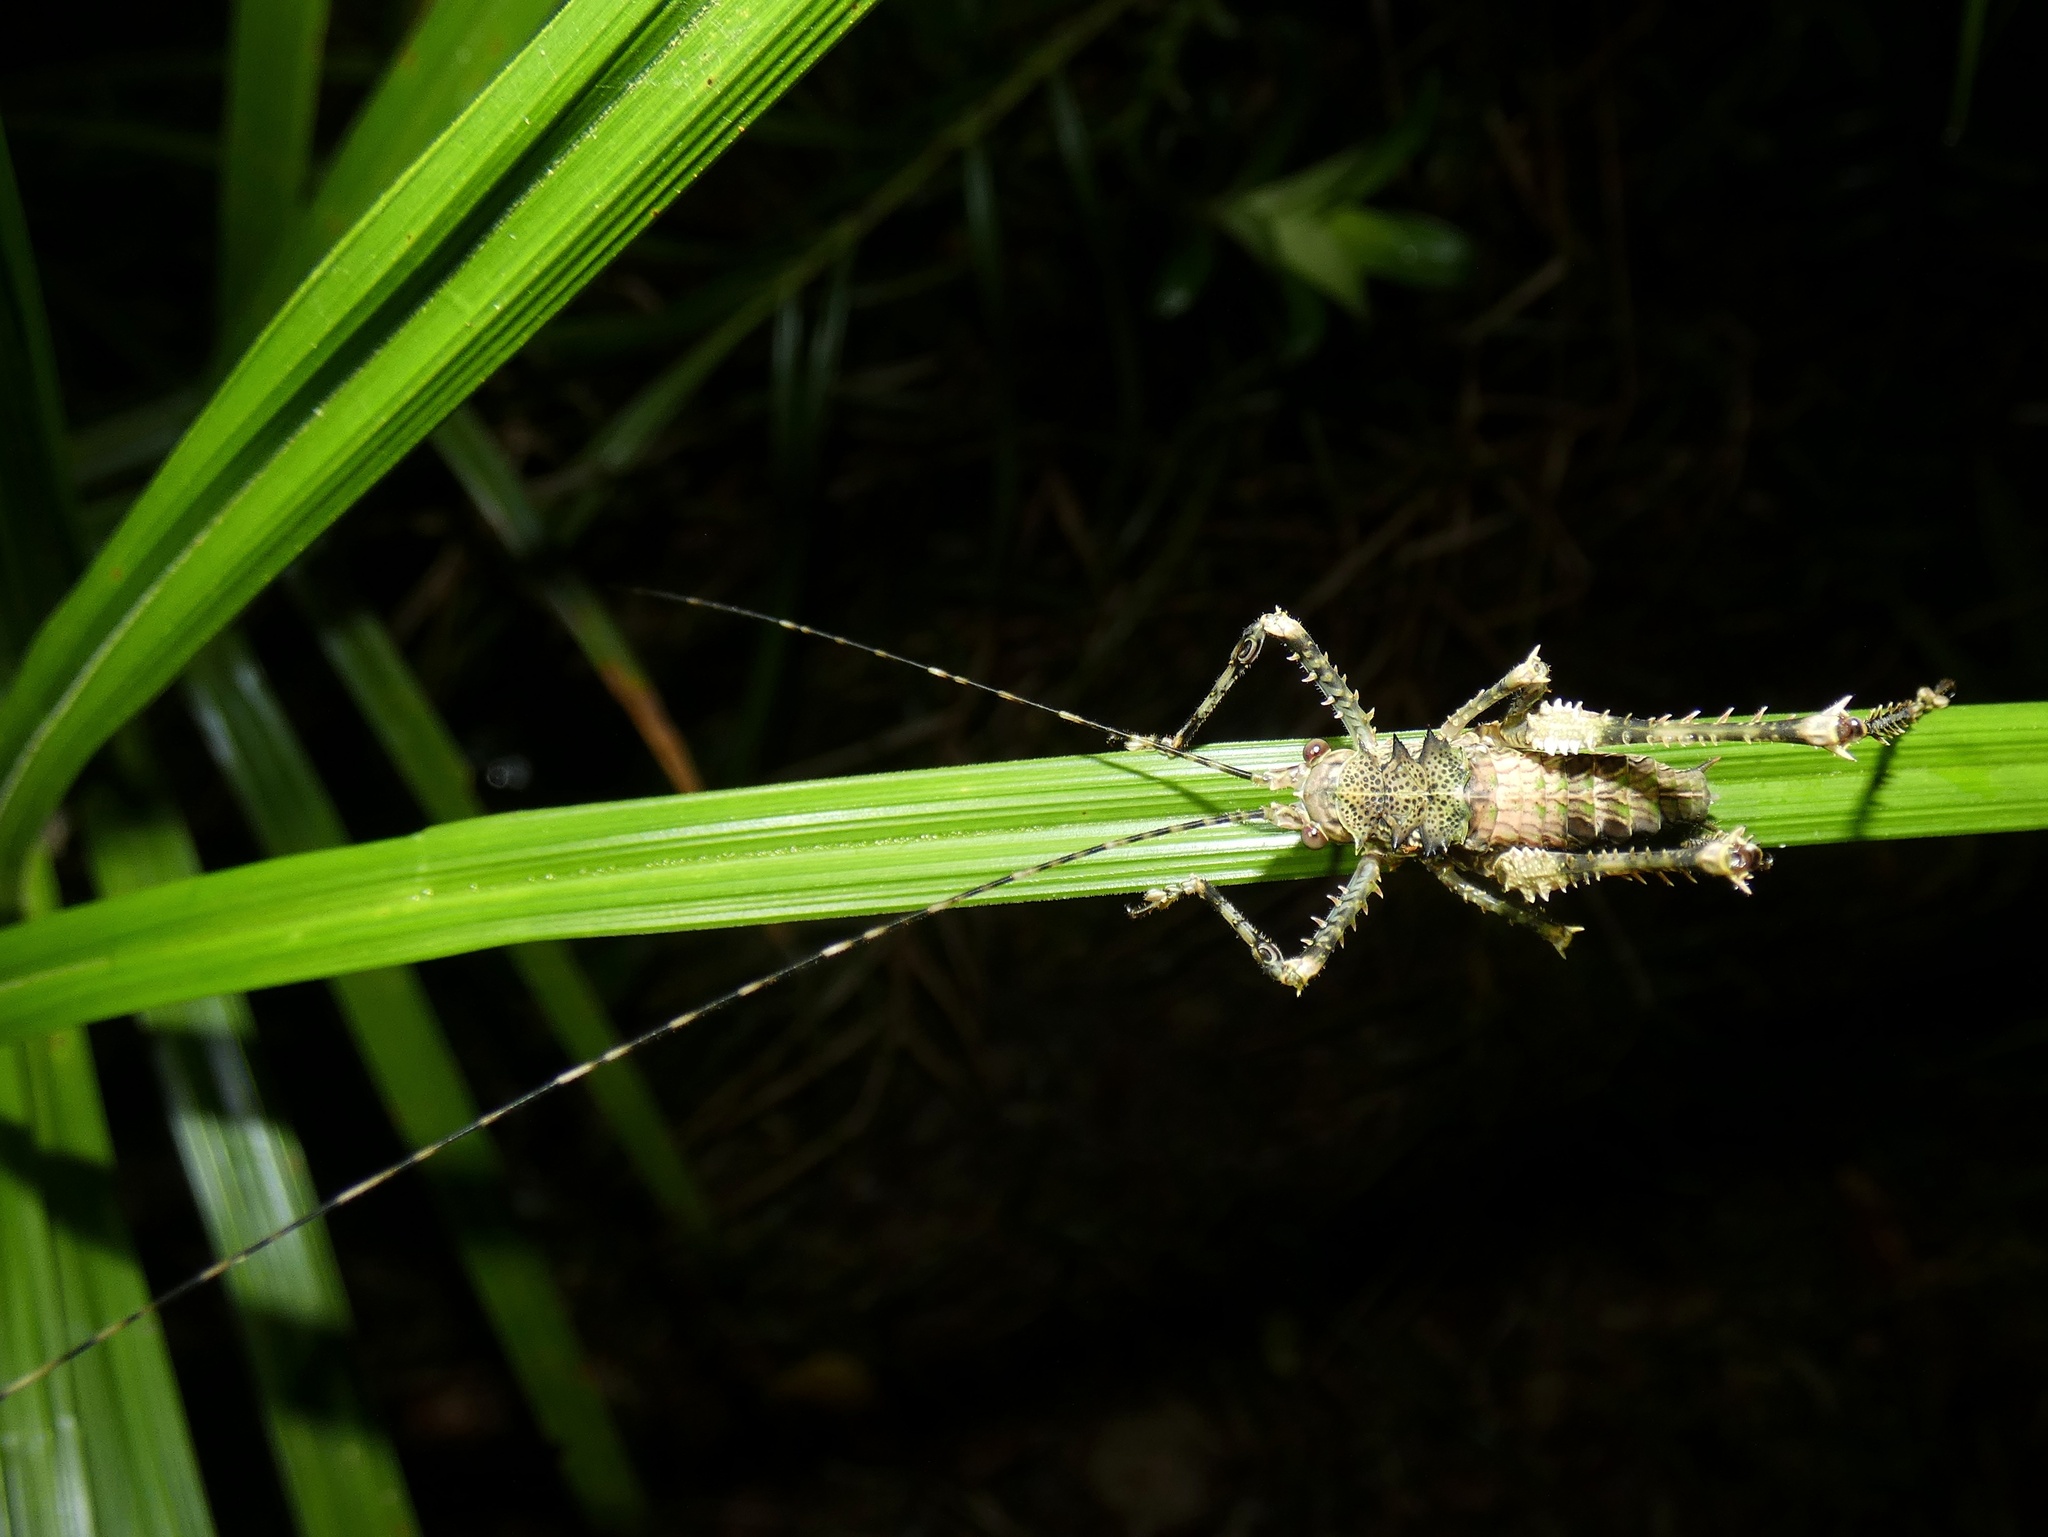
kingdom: Animalia
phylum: Arthropoda
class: Insecta
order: Orthoptera
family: Tettigoniidae
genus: Phricta
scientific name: Phricta spinosa
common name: Giant spiny forest katydid
